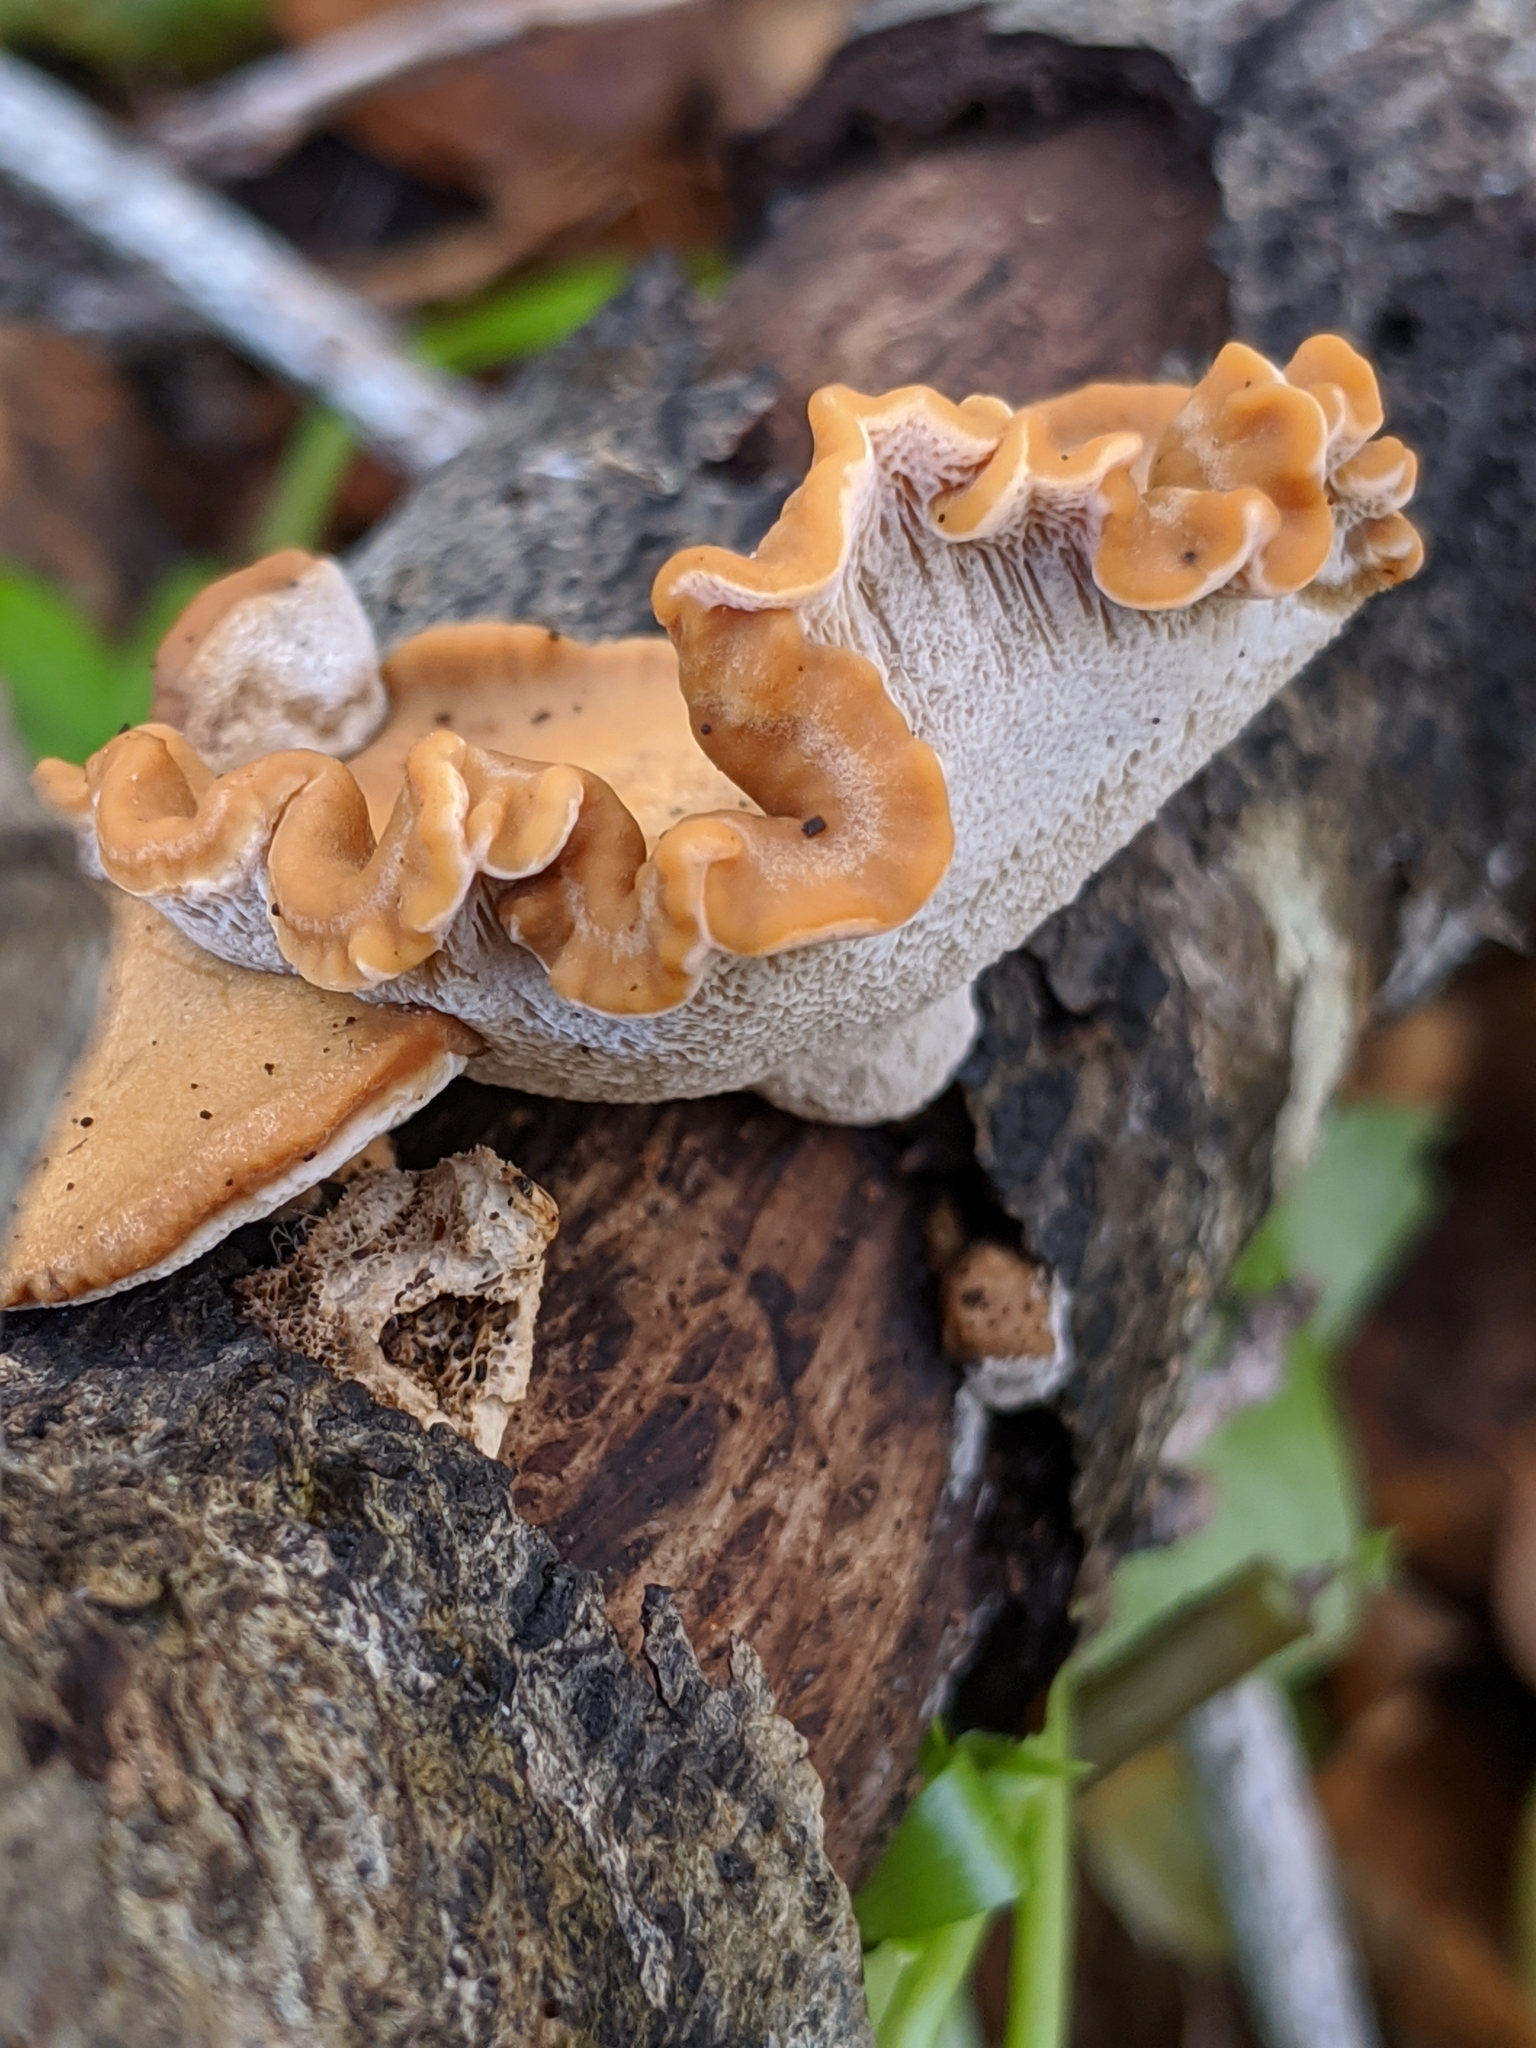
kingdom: Fungi
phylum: Basidiomycota
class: Agaricomycetes
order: Polyporales
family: Polyporaceae
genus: Cerioporus
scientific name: Cerioporus leptocephalus
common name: Blackfoot polypore
